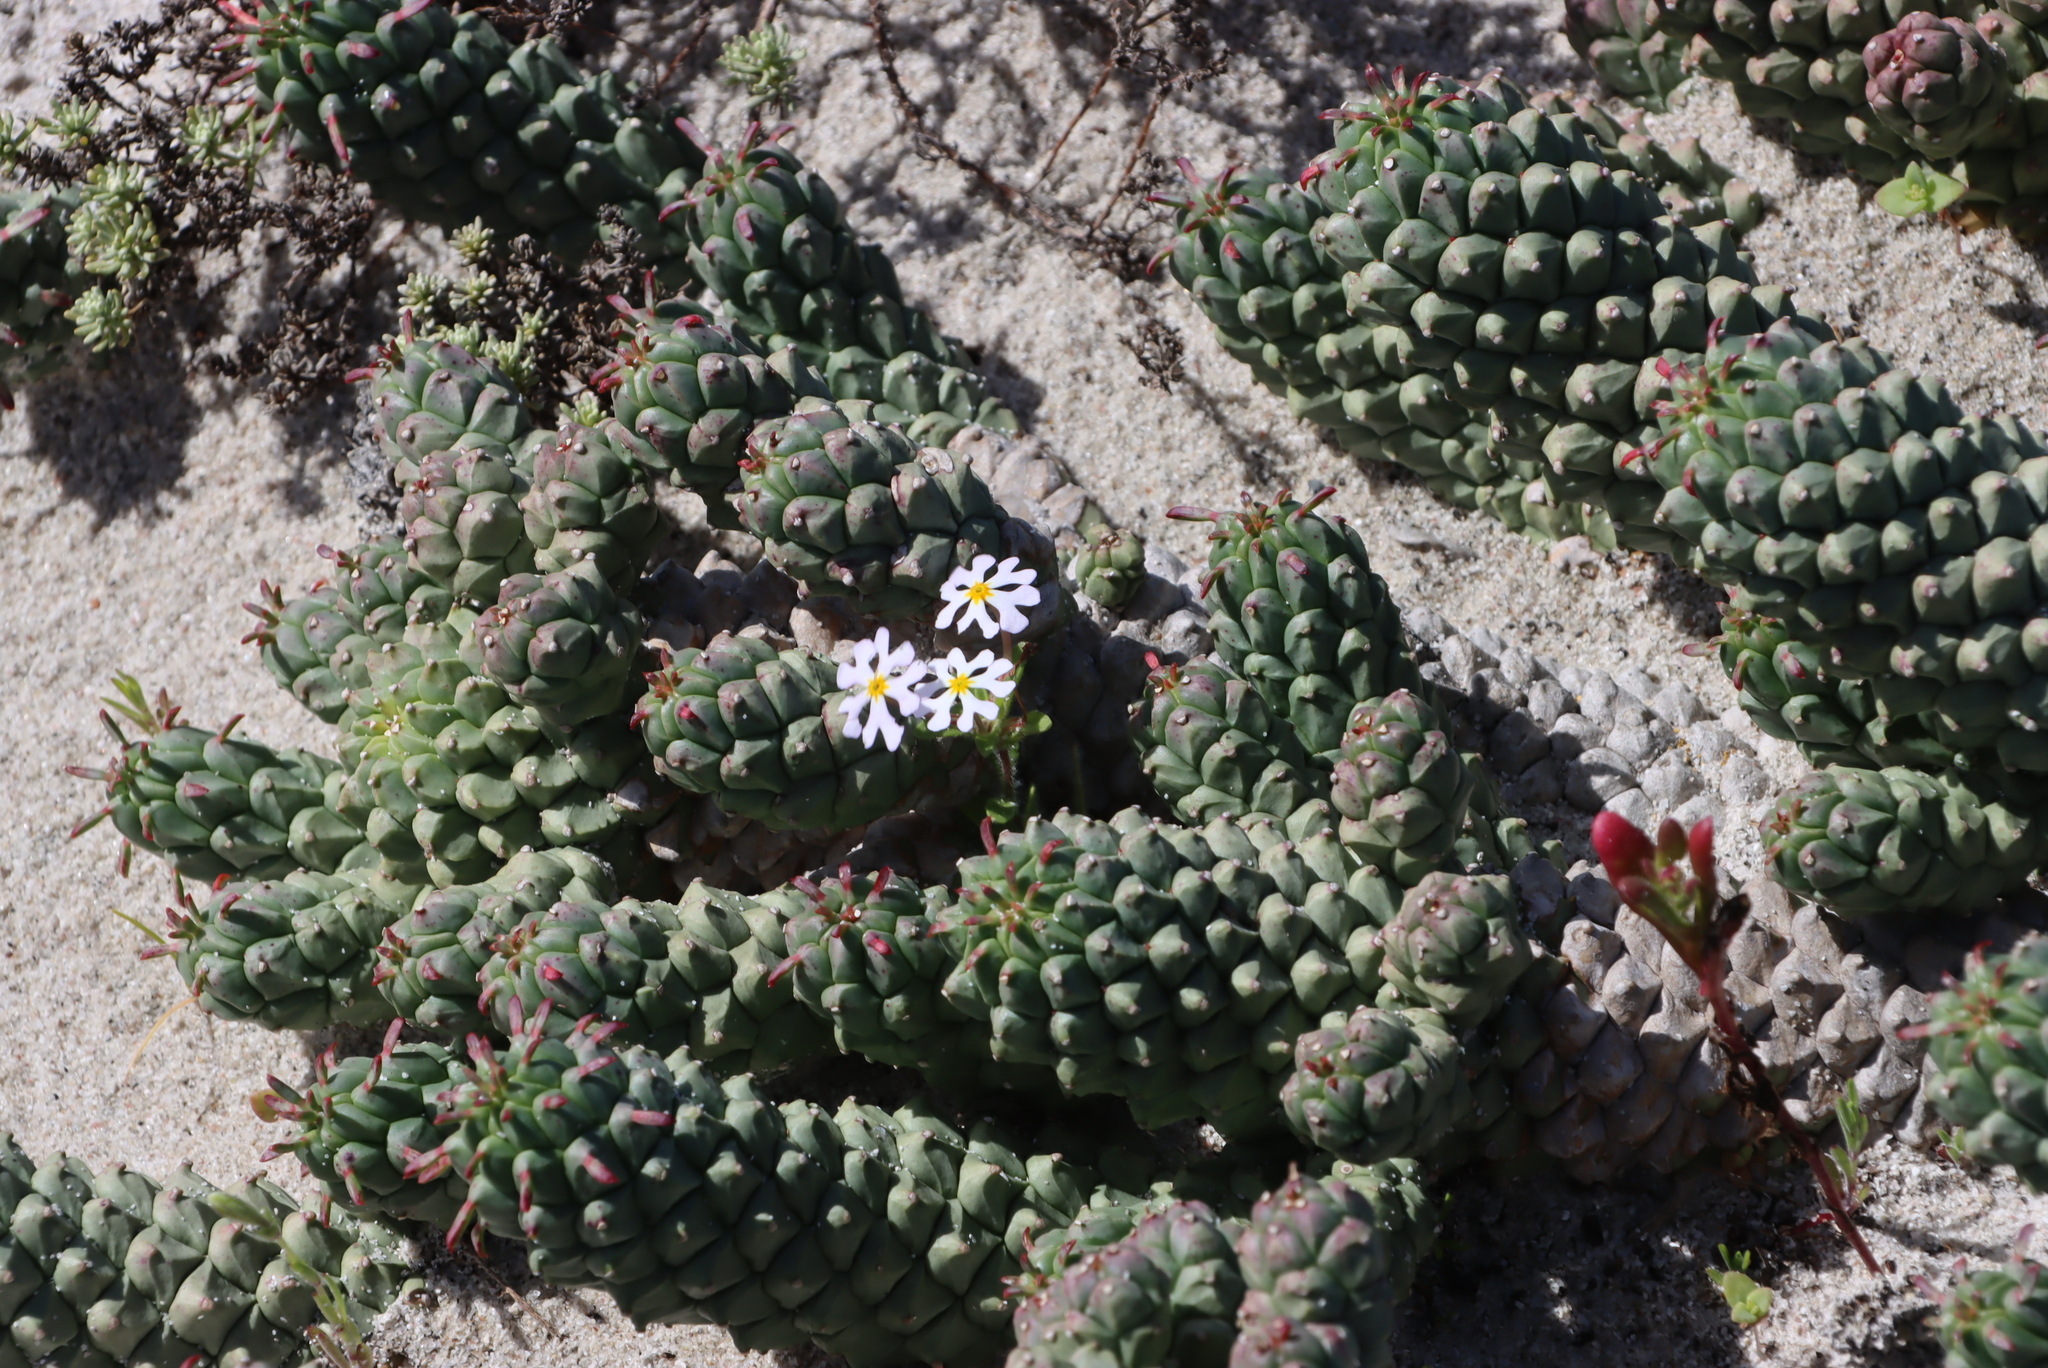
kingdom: Plantae
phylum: Tracheophyta
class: Magnoliopsida
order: Malpighiales
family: Euphorbiaceae
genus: Euphorbia
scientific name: Euphorbia caput-medusae
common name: Medusa's-head
